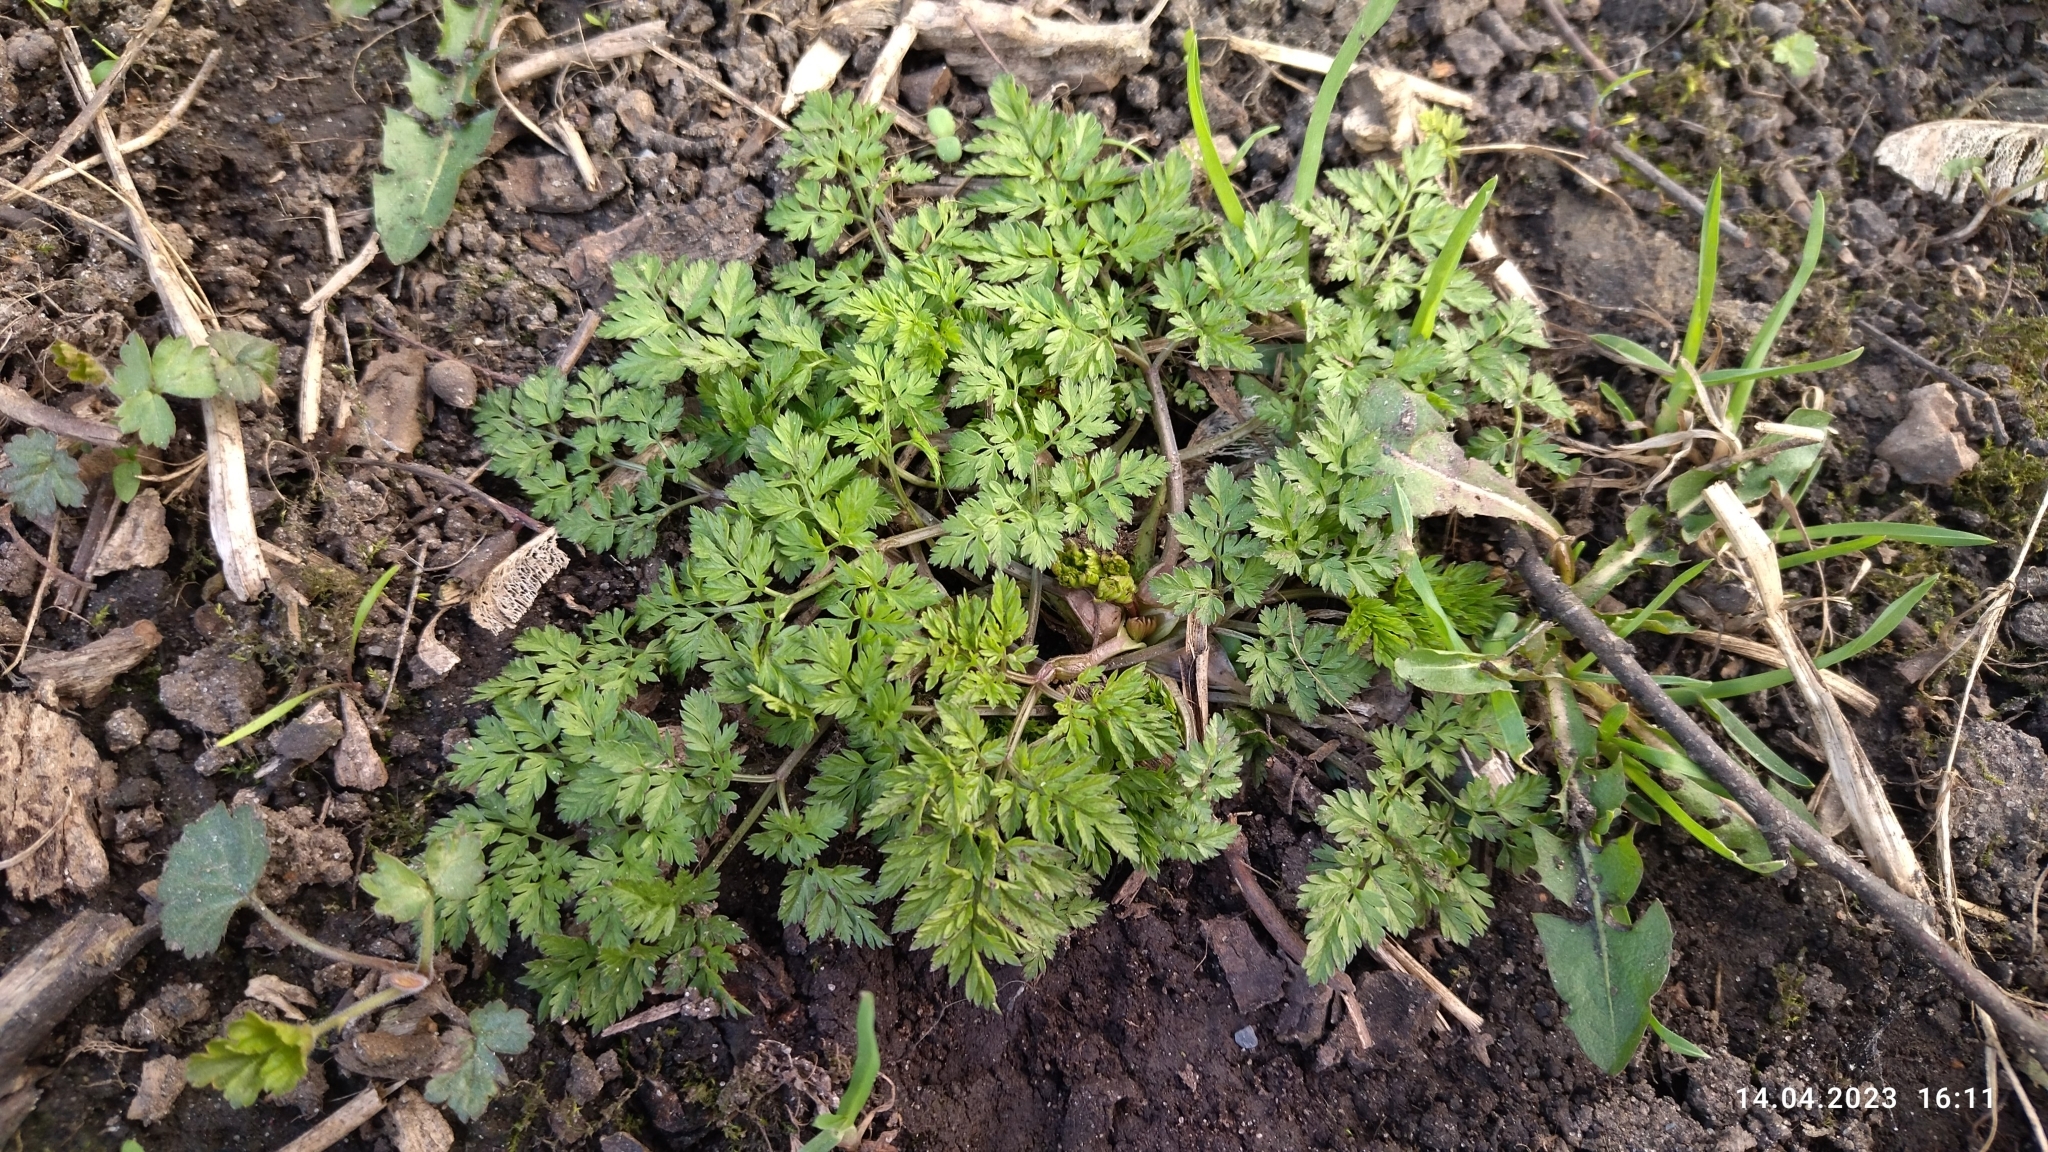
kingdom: Plantae
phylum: Tracheophyta
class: Magnoliopsida
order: Apiales
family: Apiaceae
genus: Anthriscus
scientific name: Anthriscus sylvestris
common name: Cow parsley
